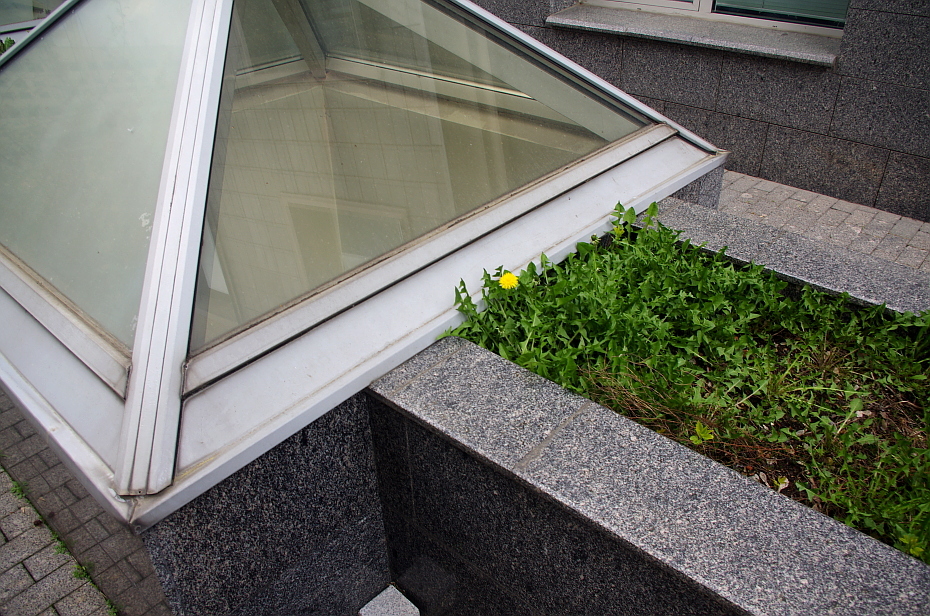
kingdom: Plantae
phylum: Tracheophyta
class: Magnoliopsida
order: Asterales
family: Asteraceae
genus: Taraxacum
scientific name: Taraxacum officinale
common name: Common dandelion
